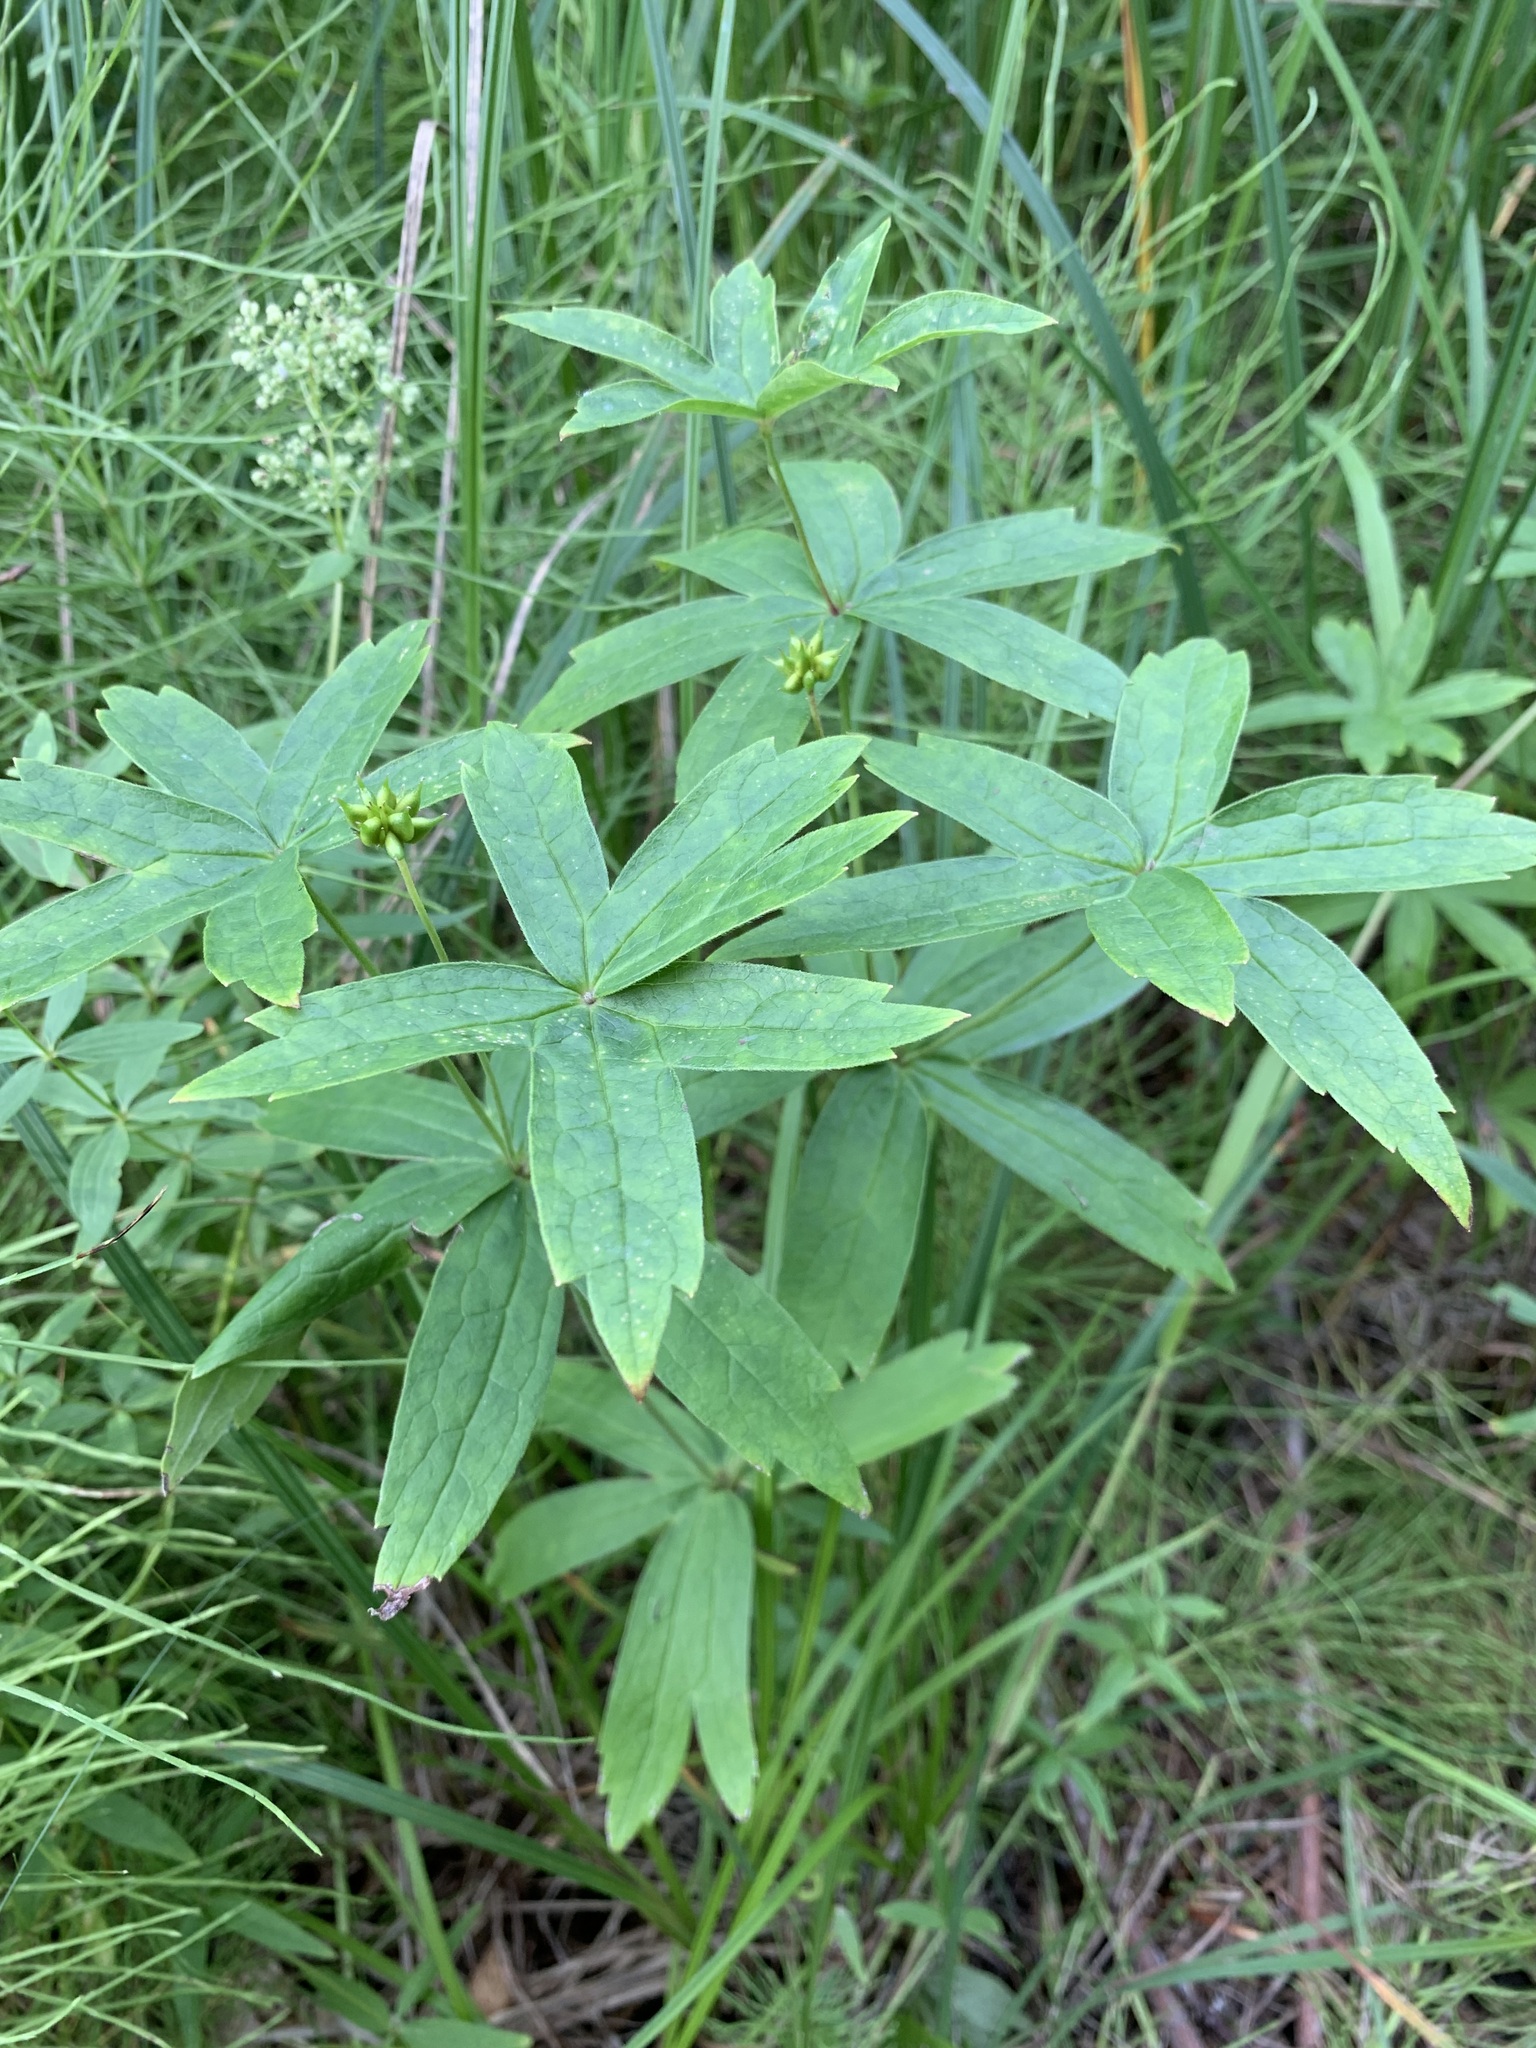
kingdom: Plantae
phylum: Tracheophyta
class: Magnoliopsida
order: Ranunculales
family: Ranunculaceae
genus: Anemonastrum
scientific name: Anemonastrum dichotomum
